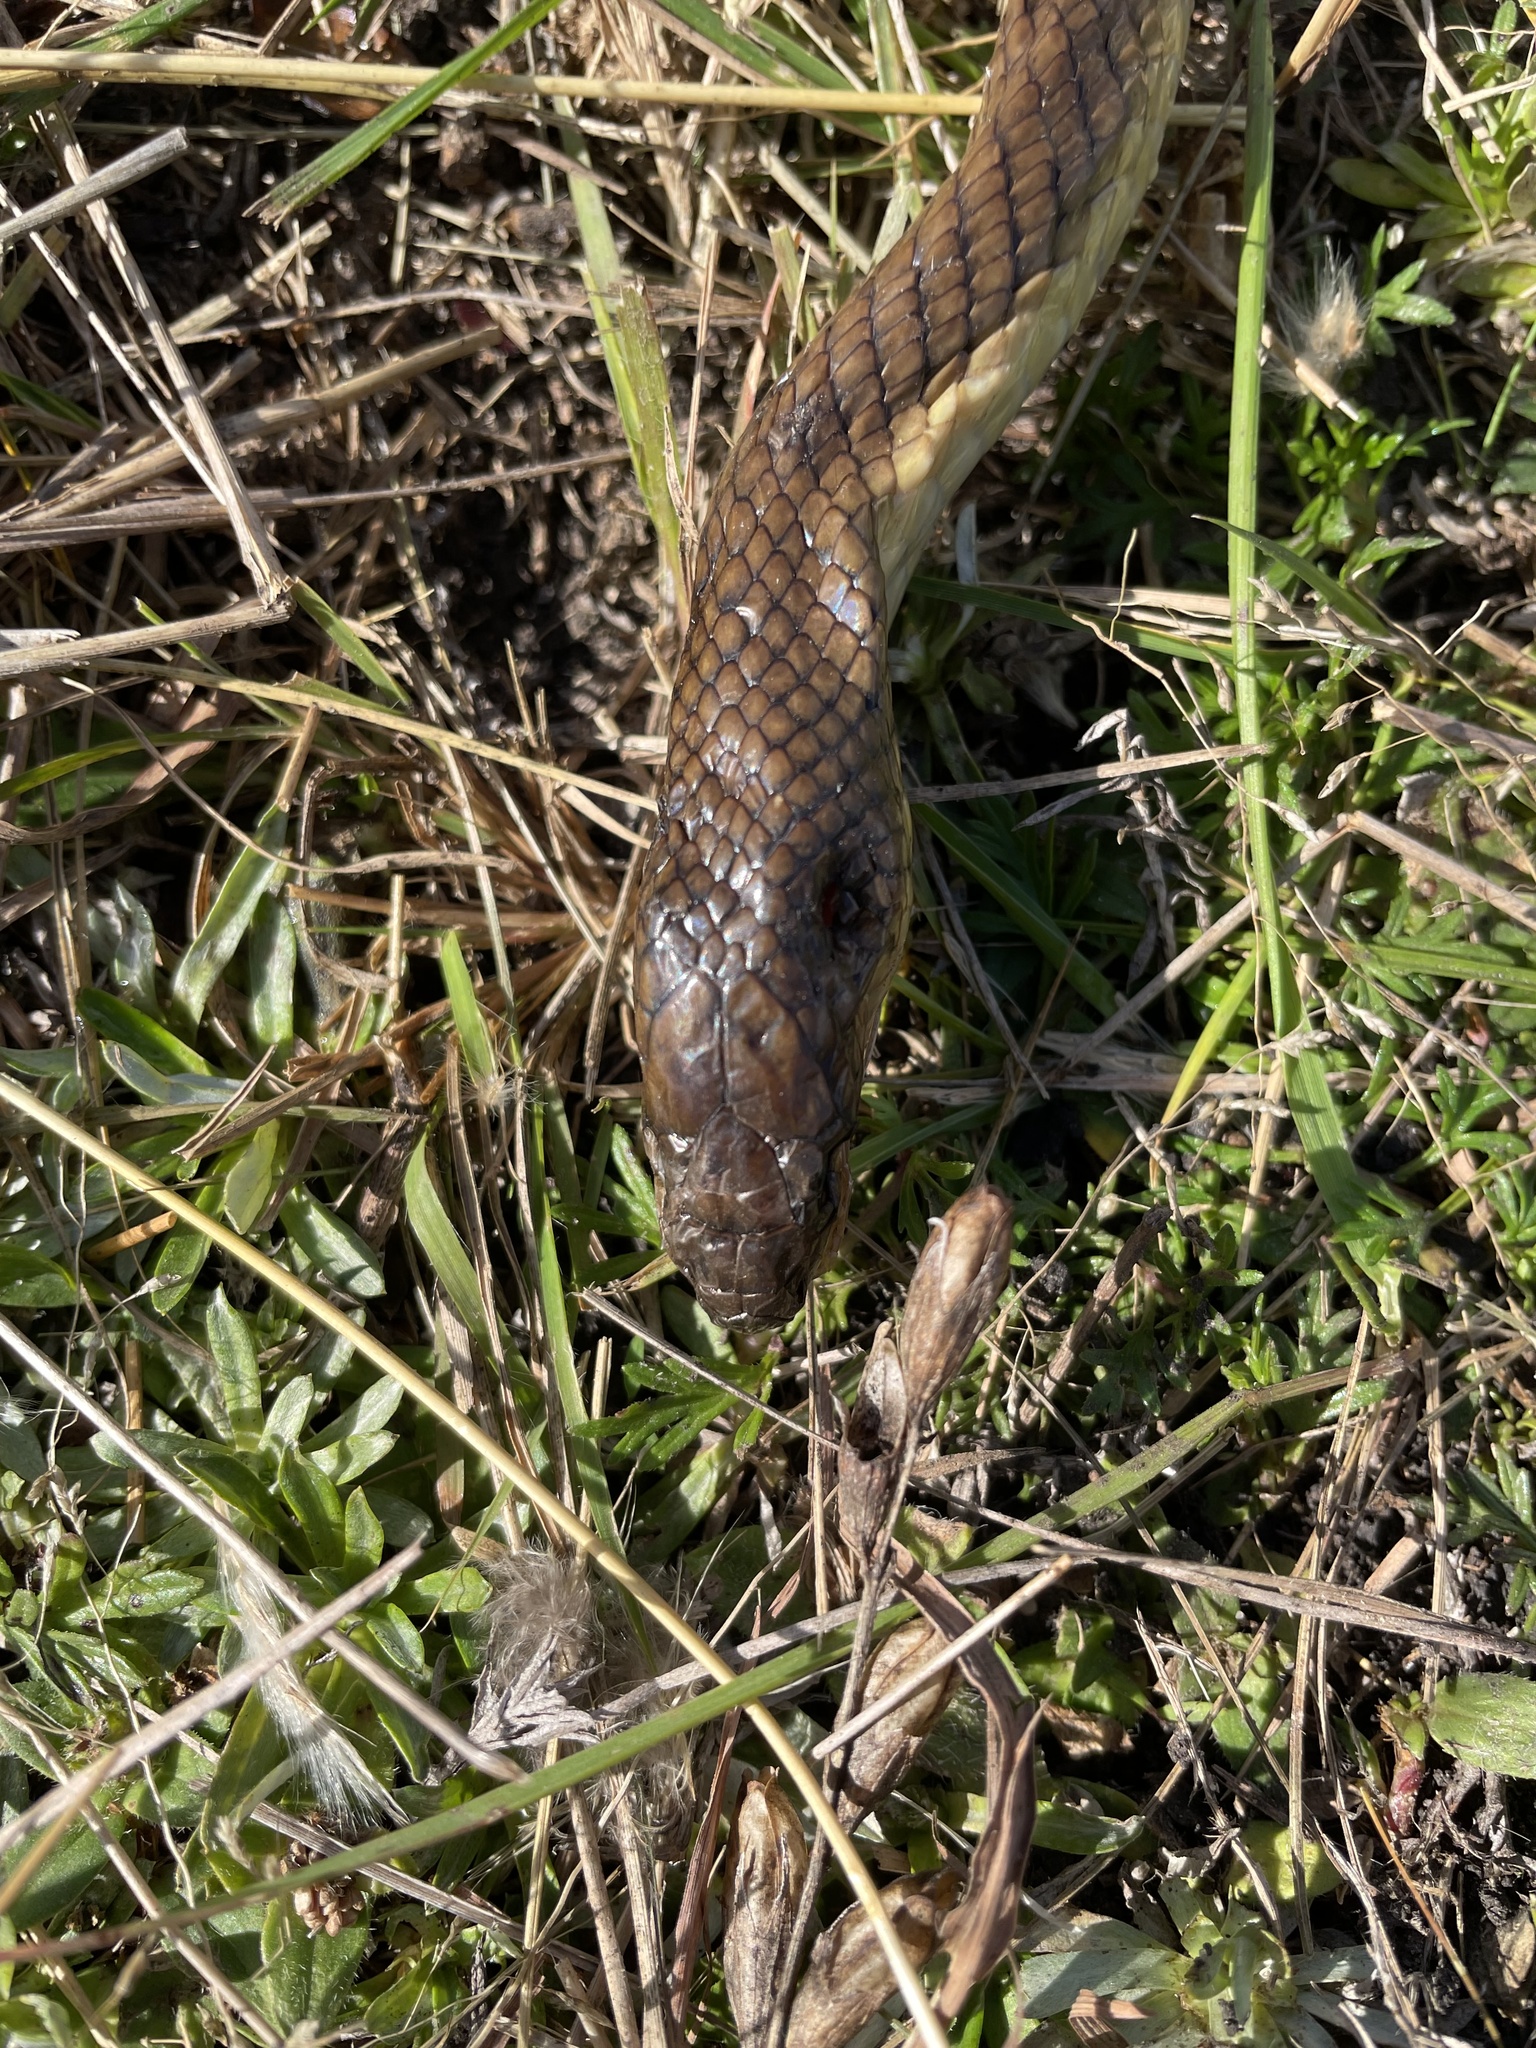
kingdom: Animalia
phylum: Chordata
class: Squamata
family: Colubridae
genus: Erythrolamprus
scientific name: Erythrolamprus semiaureus
